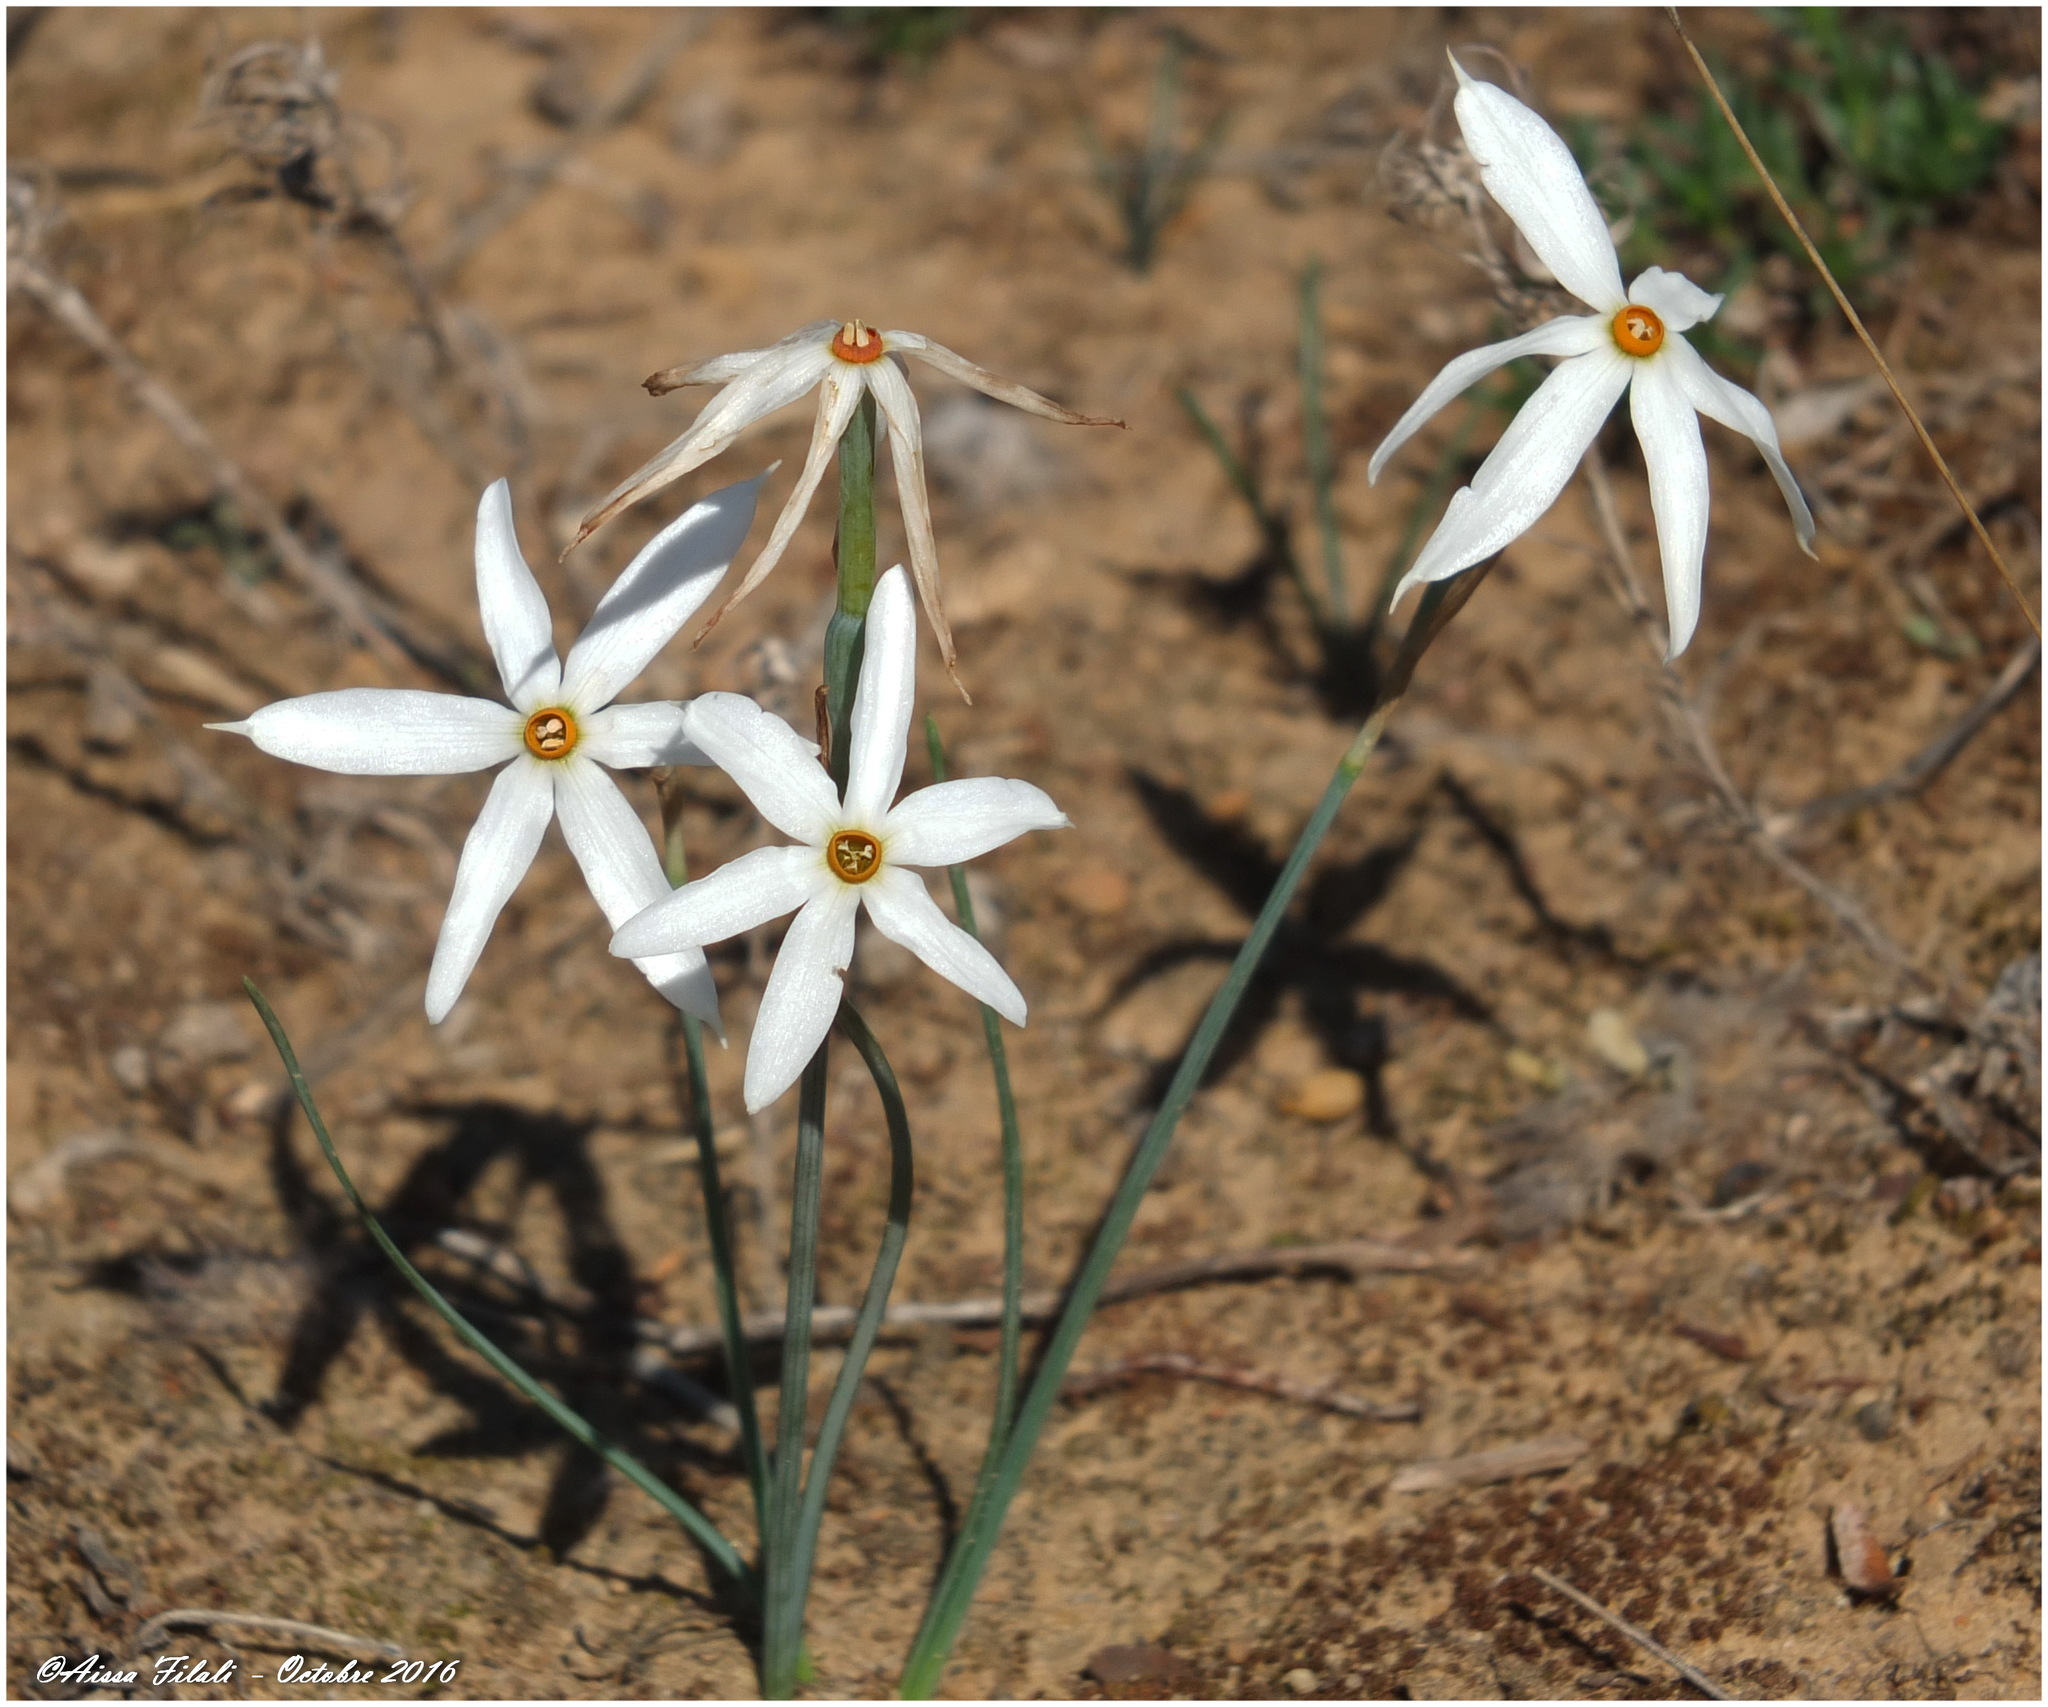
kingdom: Plantae
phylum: Tracheophyta
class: Liliopsida
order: Asparagales
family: Amaryllidaceae
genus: Narcissus
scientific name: Narcissus obsoletus
